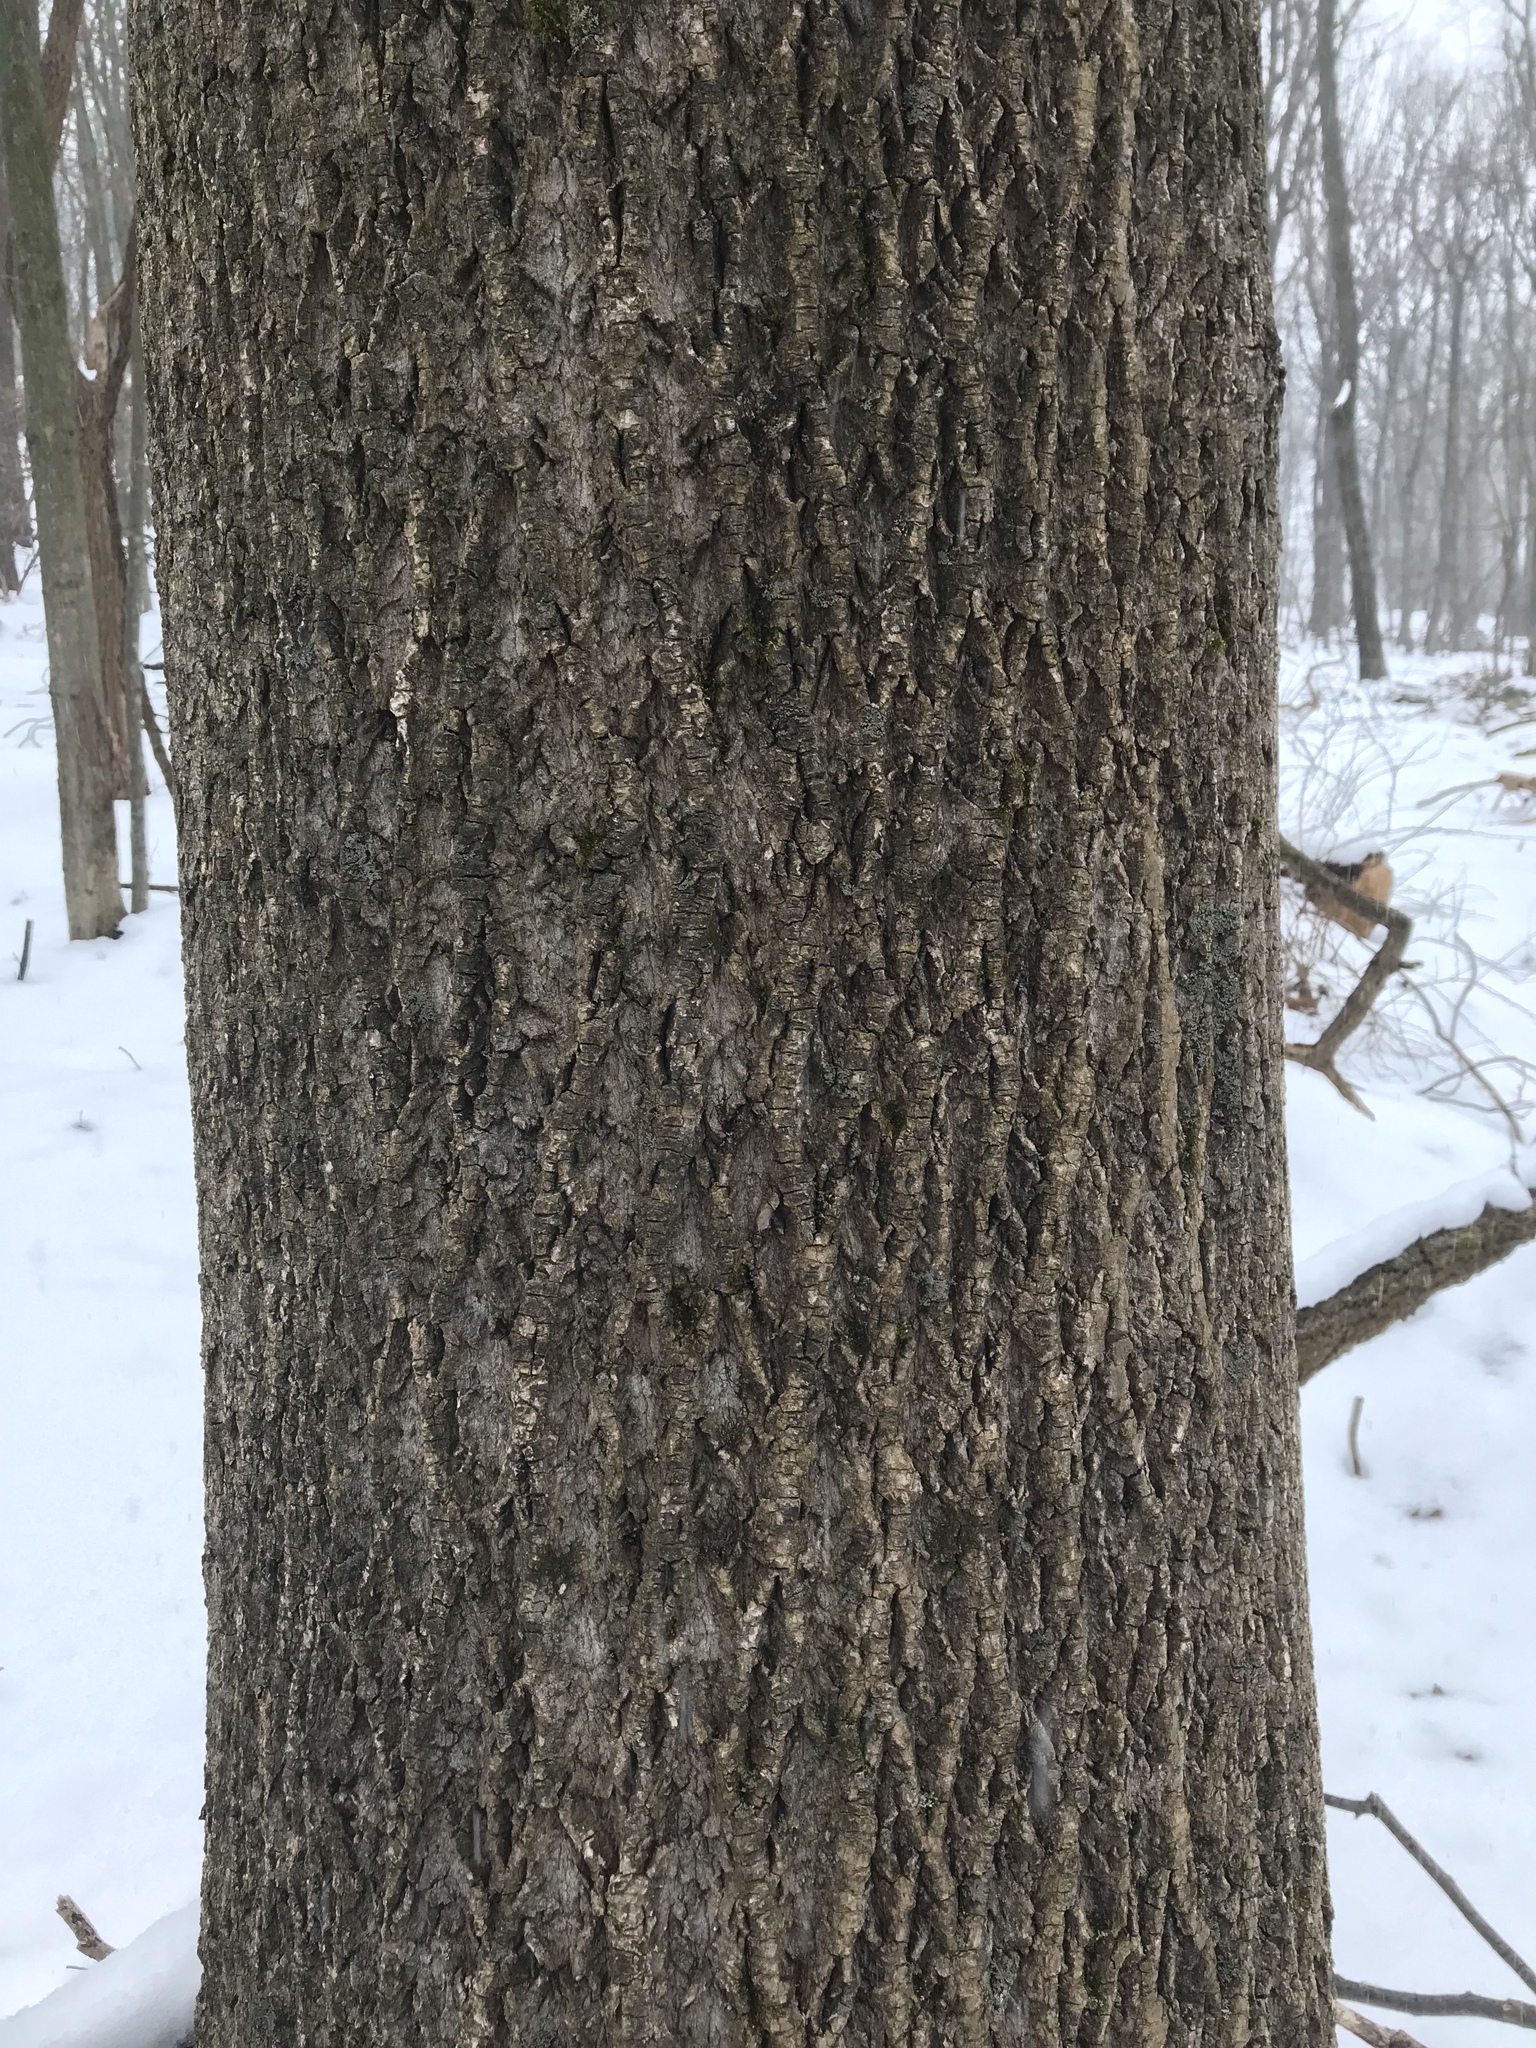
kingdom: Plantae
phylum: Tracheophyta
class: Magnoliopsida
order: Magnoliales
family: Magnoliaceae
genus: Liriodendron
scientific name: Liriodendron tulipifera
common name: Tulip tree
